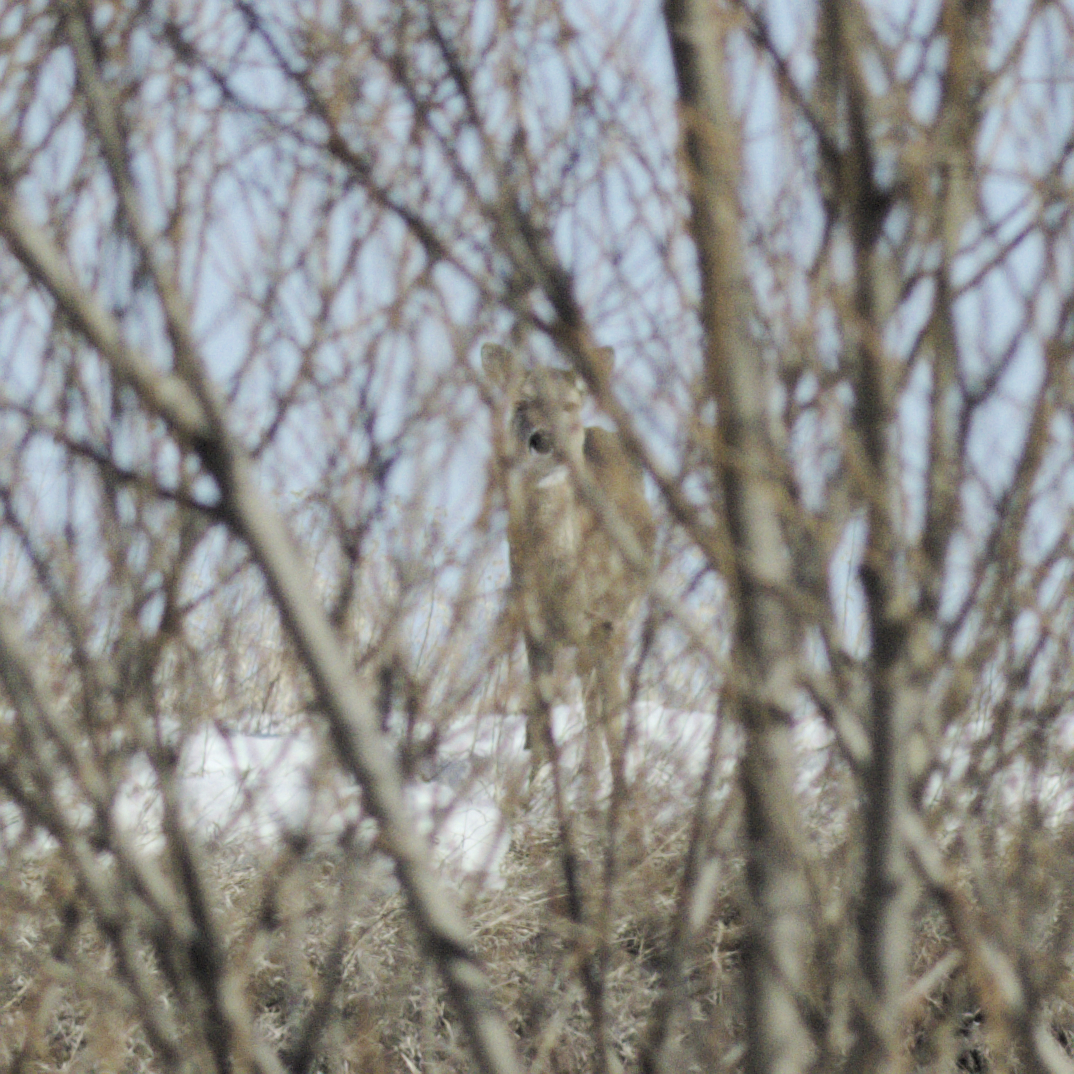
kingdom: Animalia
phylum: Chordata
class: Mammalia
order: Artiodactyla
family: Cervidae
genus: Odocoileus
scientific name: Odocoileus virginianus
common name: White-tailed deer
